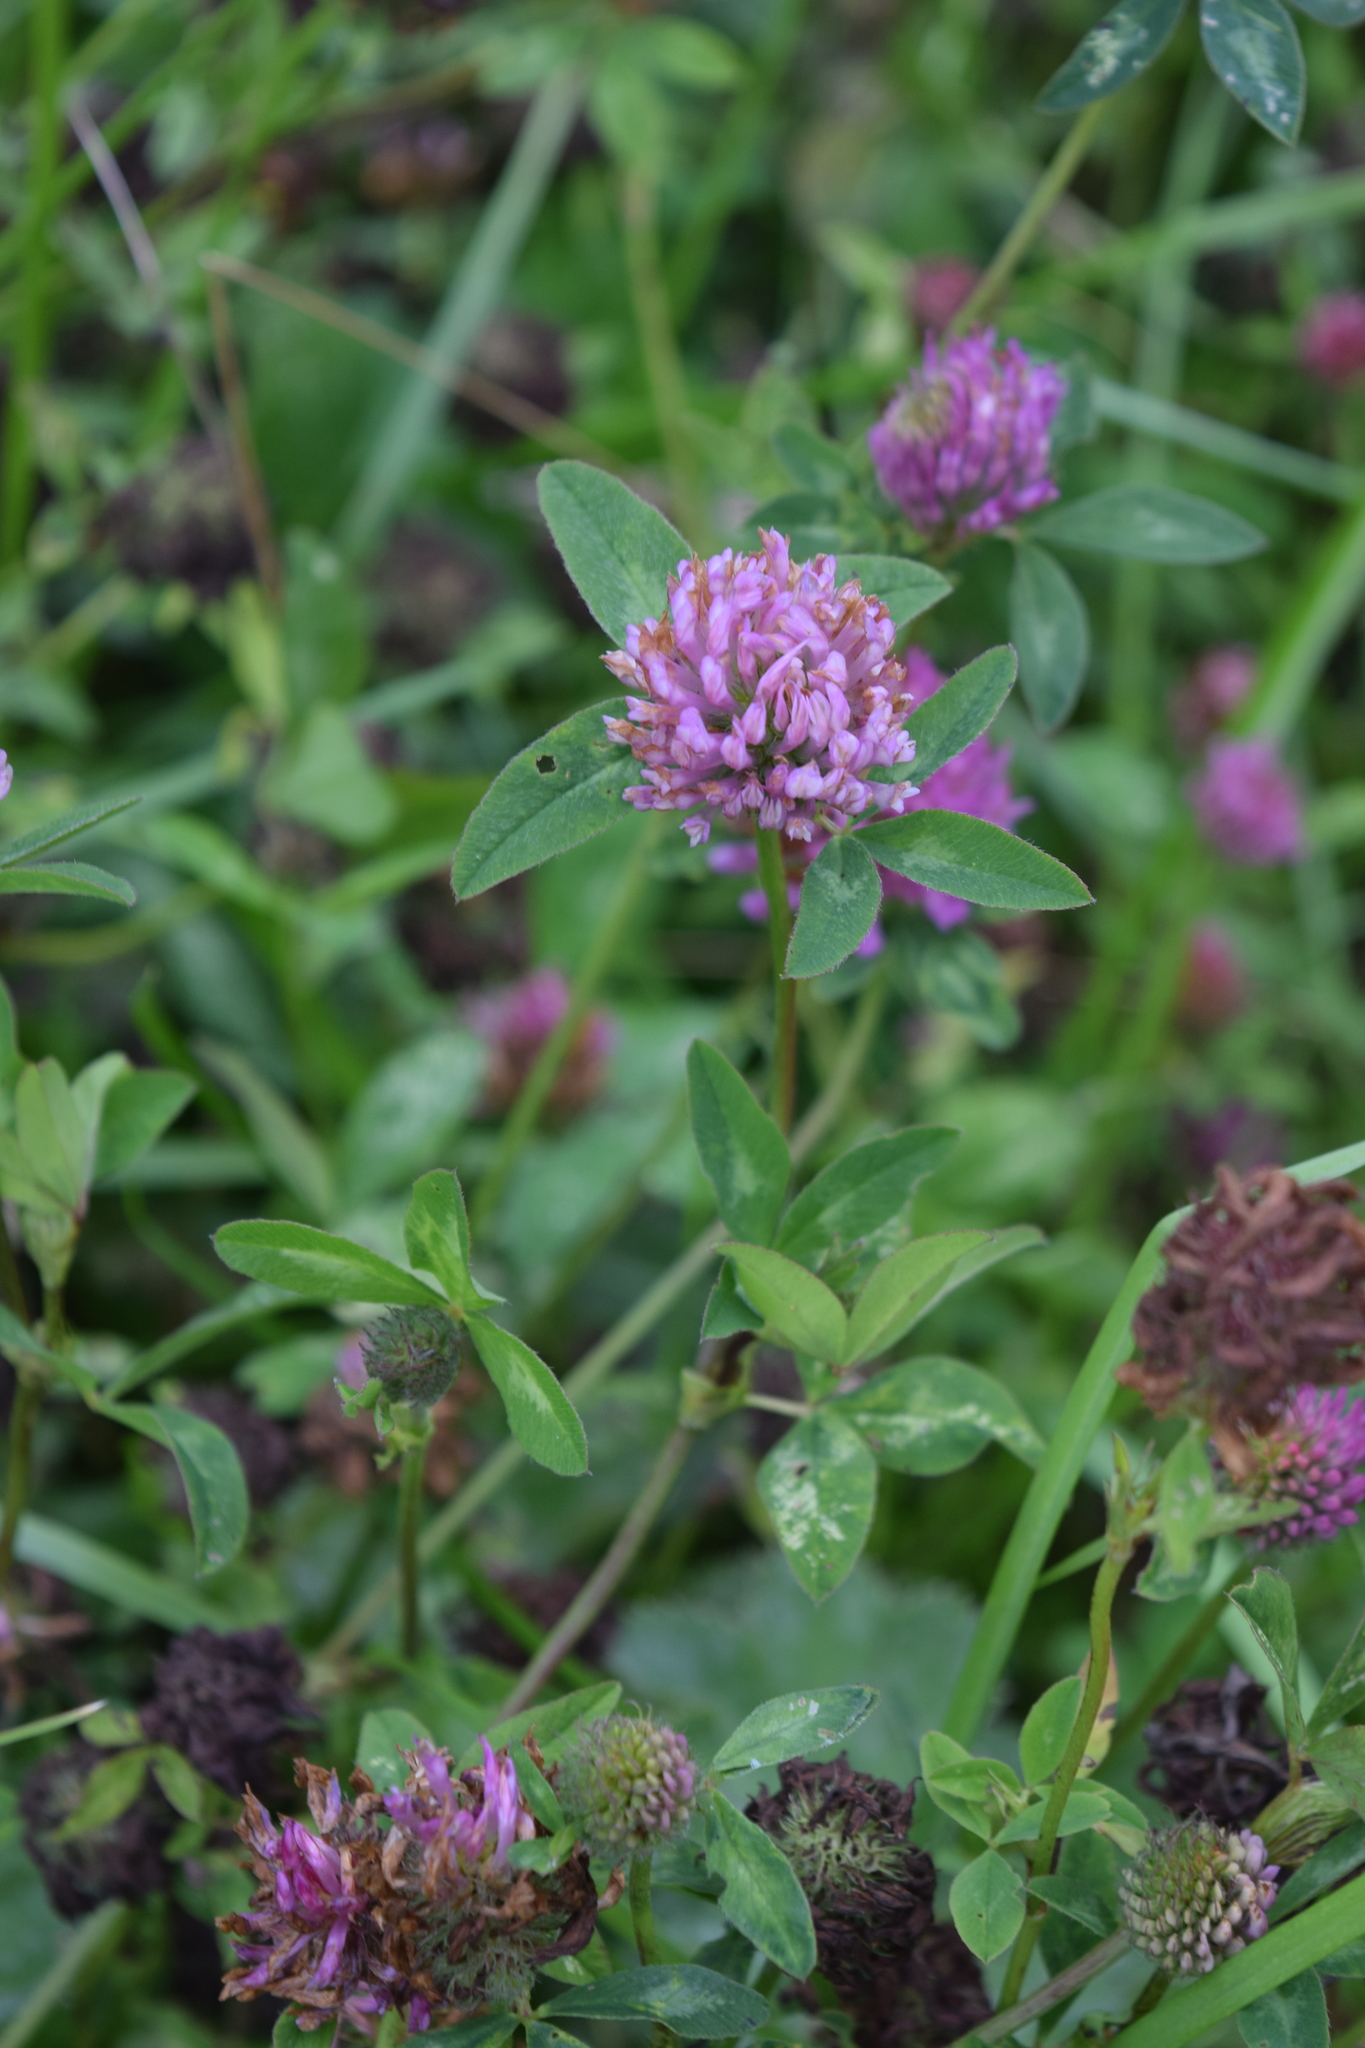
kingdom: Plantae
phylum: Tracheophyta
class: Magnoliopsida
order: Fabales
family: Fabaceae
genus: Trifolium
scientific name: Trifolium pratense
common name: Red clover
